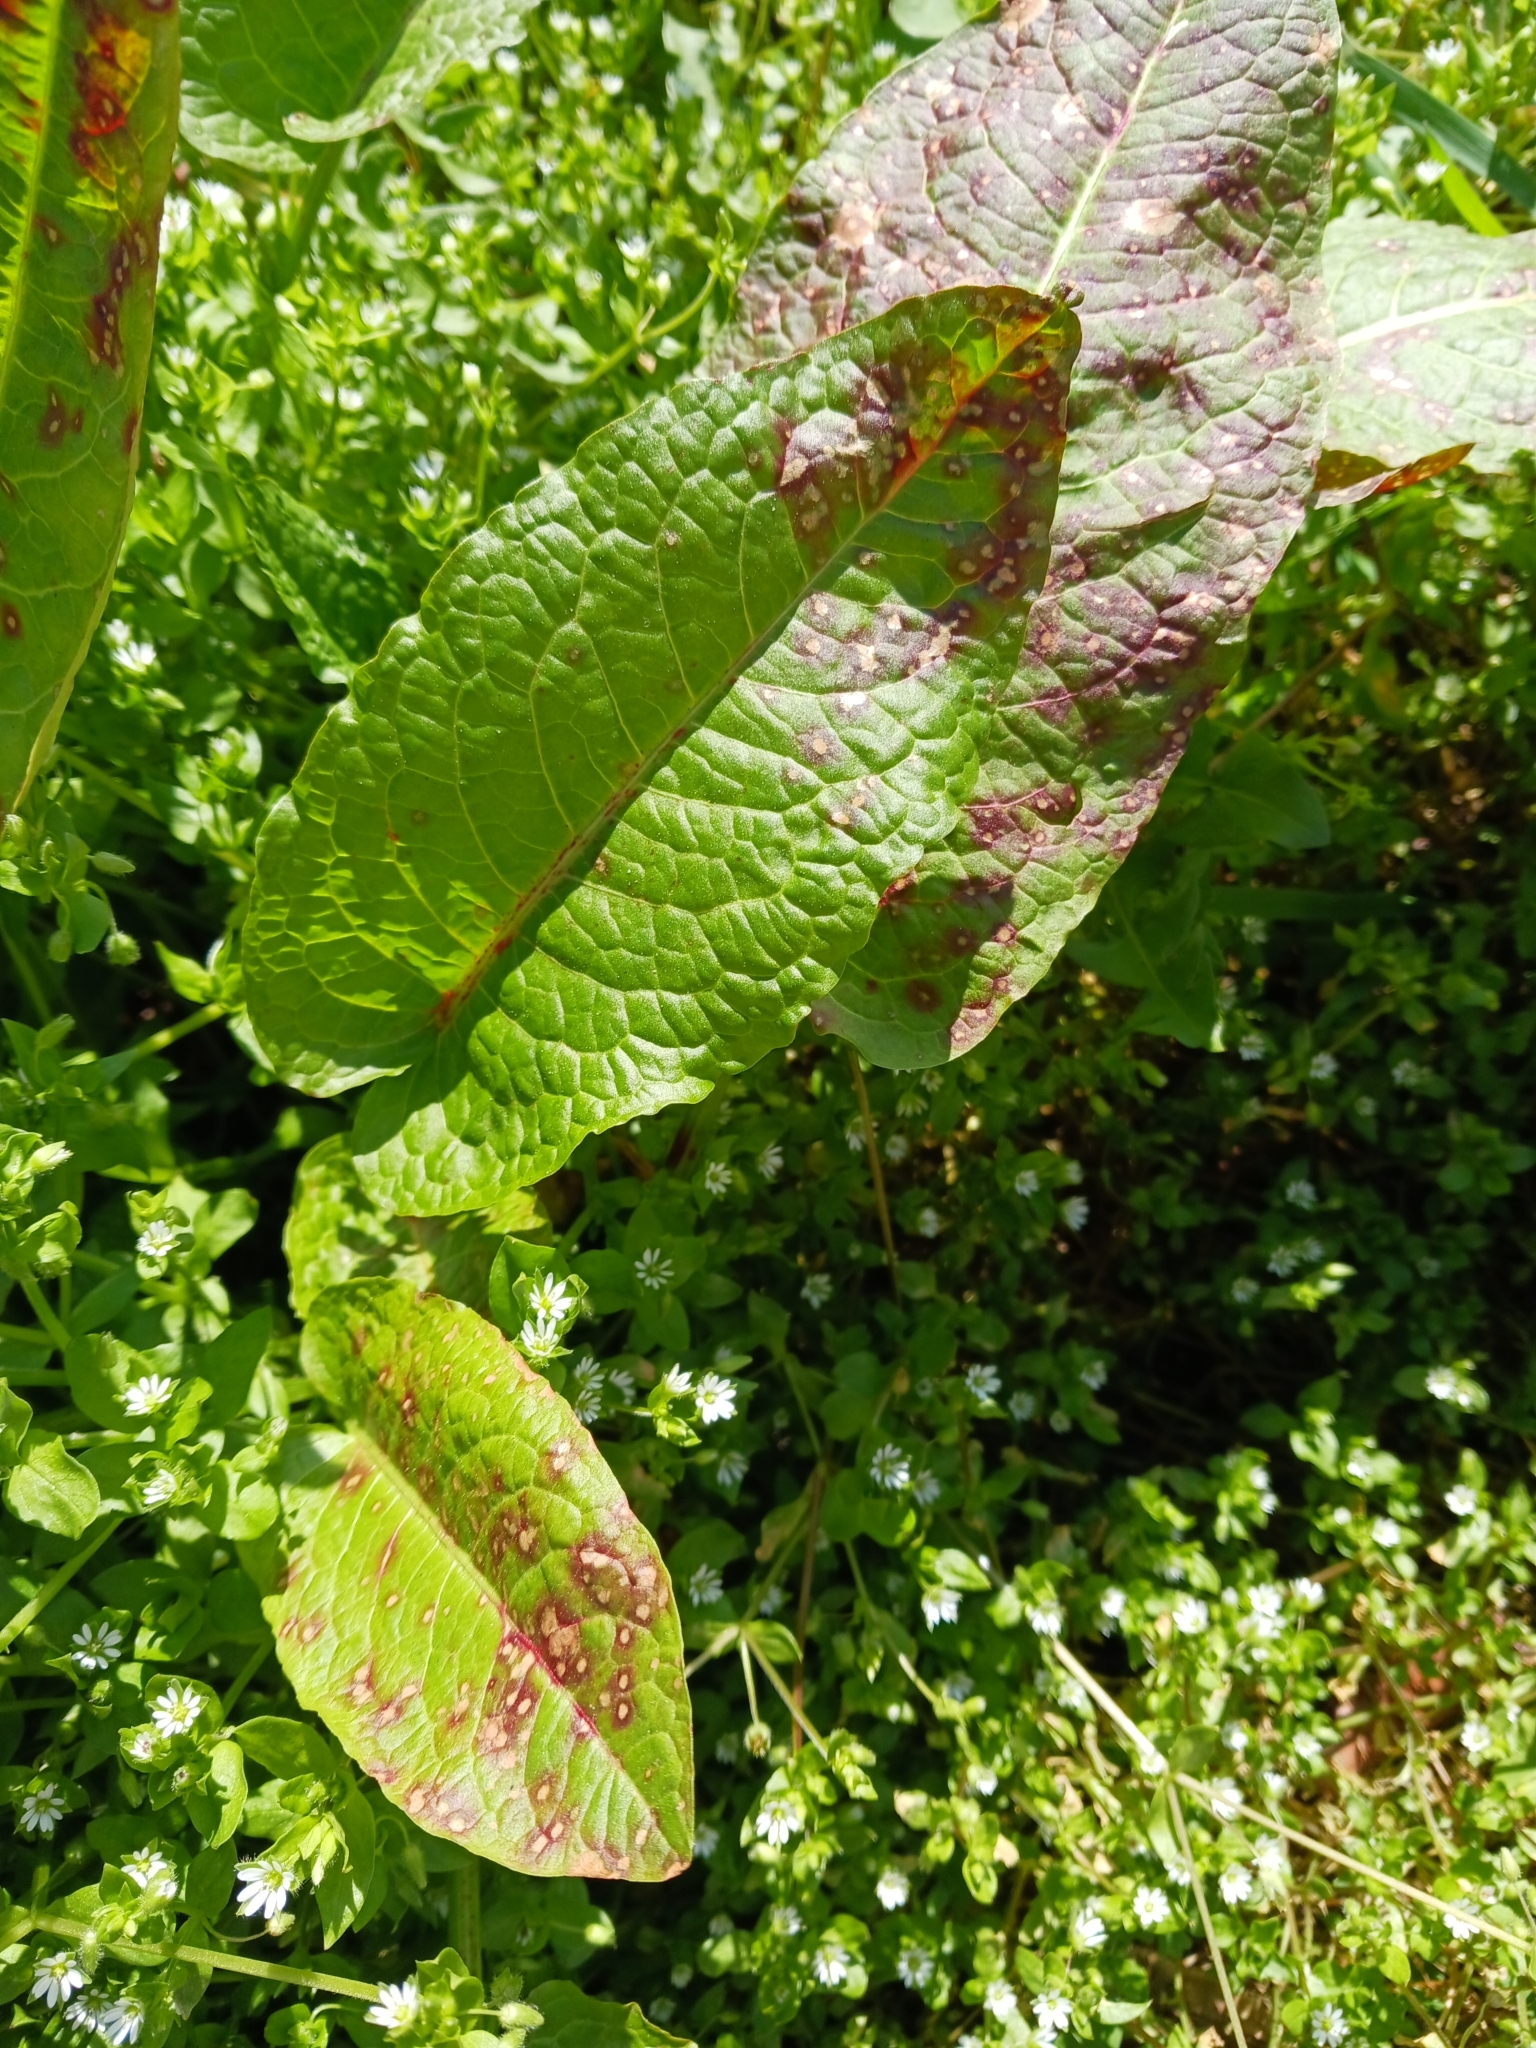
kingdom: Fungi
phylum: Ascomycota
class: Dothideomycetes
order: Mycosphaerellales
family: Mycosphaerellaceae
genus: Ramularia
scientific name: Ramularia rubella
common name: Red dock spot
